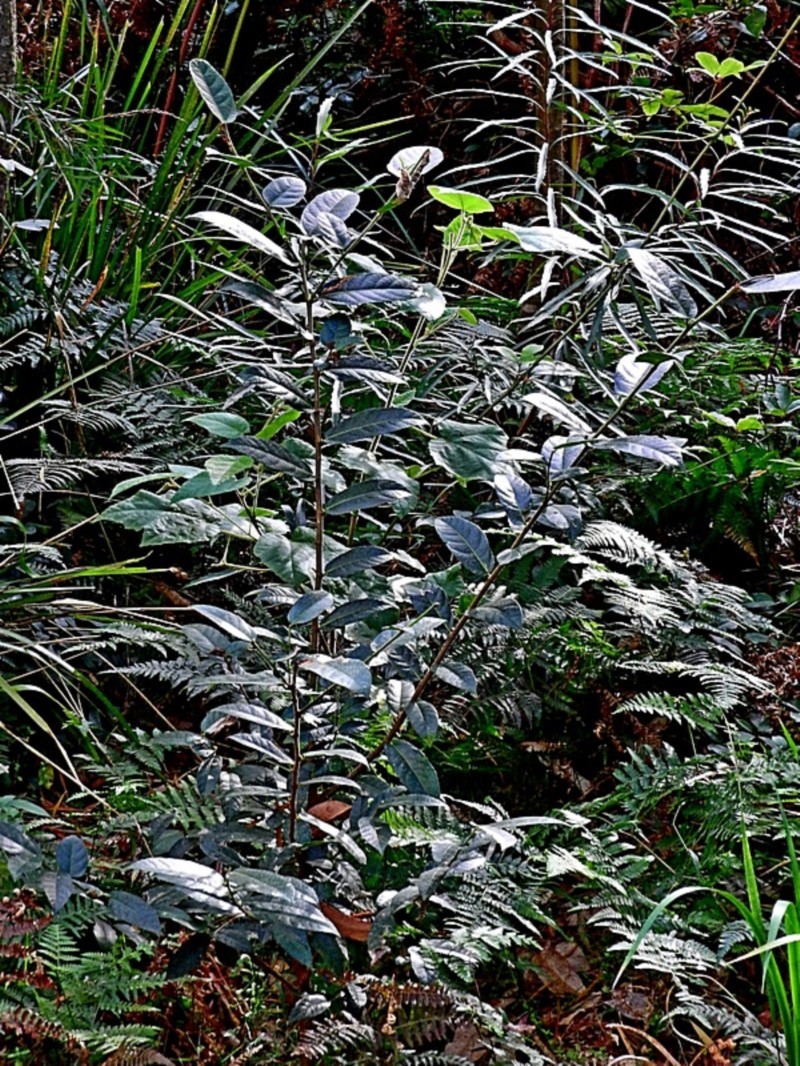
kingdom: Plantae
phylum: Tracheophyta
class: Magnoliopsida
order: Rosales
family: Moraceae
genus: Ficus
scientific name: Ficus coronata
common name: Creek sandpaper fig
